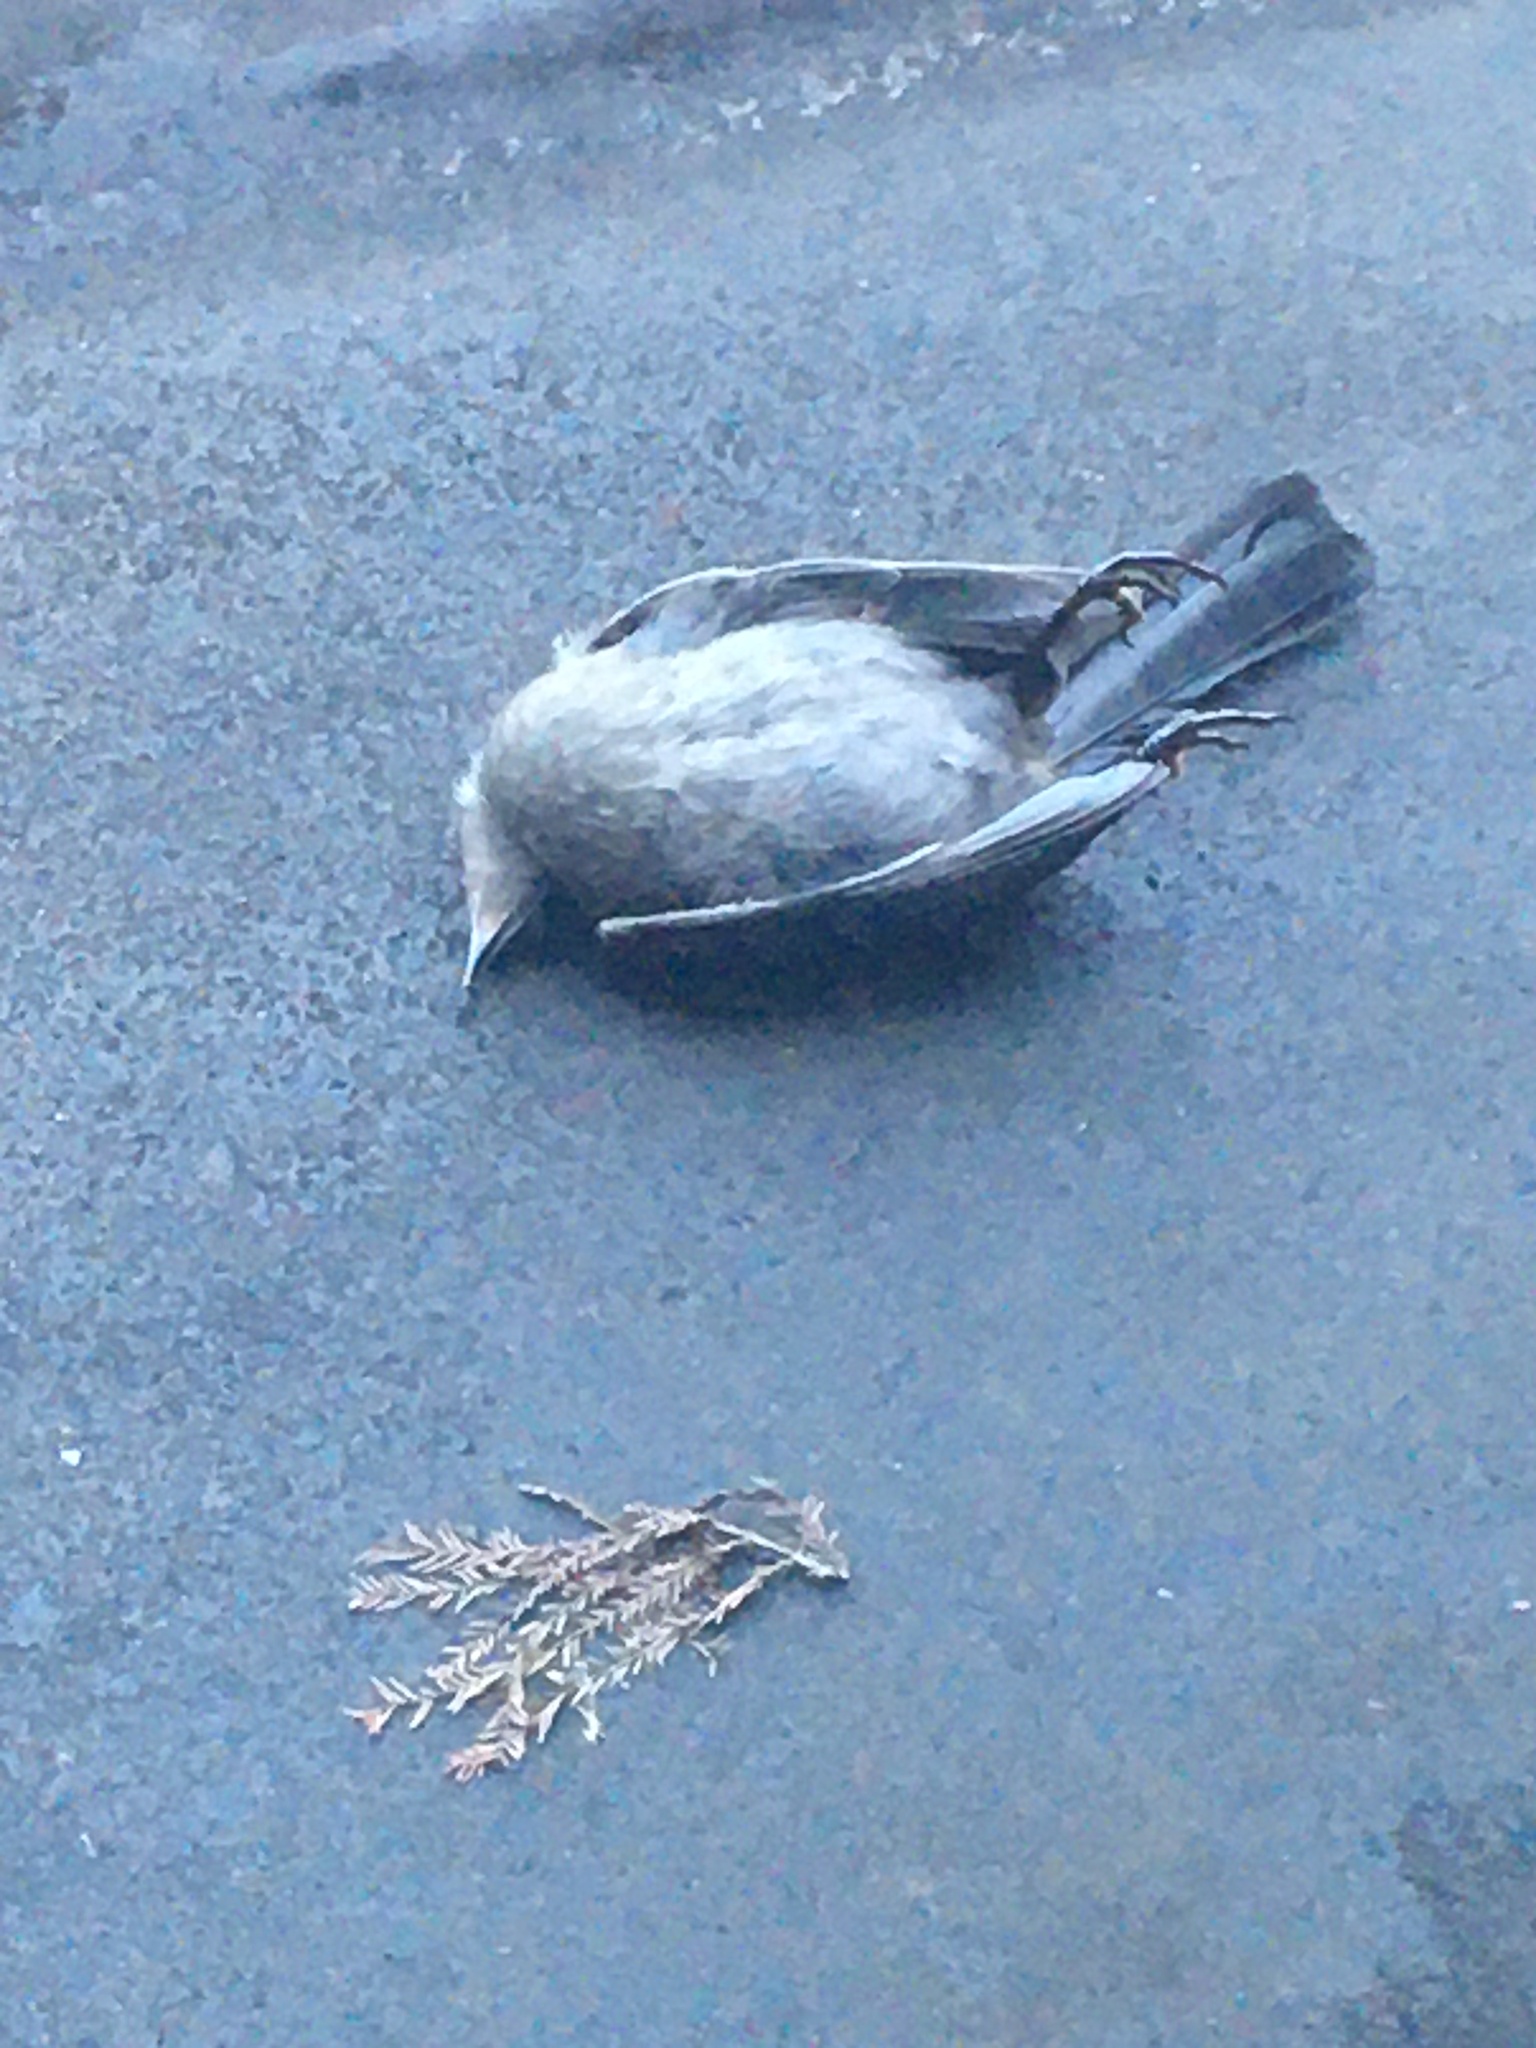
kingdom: Animalia
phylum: Chordata
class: Aves
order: Passeriformes
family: Mimidae
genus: Dumetella
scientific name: Dumetella carolinensis
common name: Gray catbird
